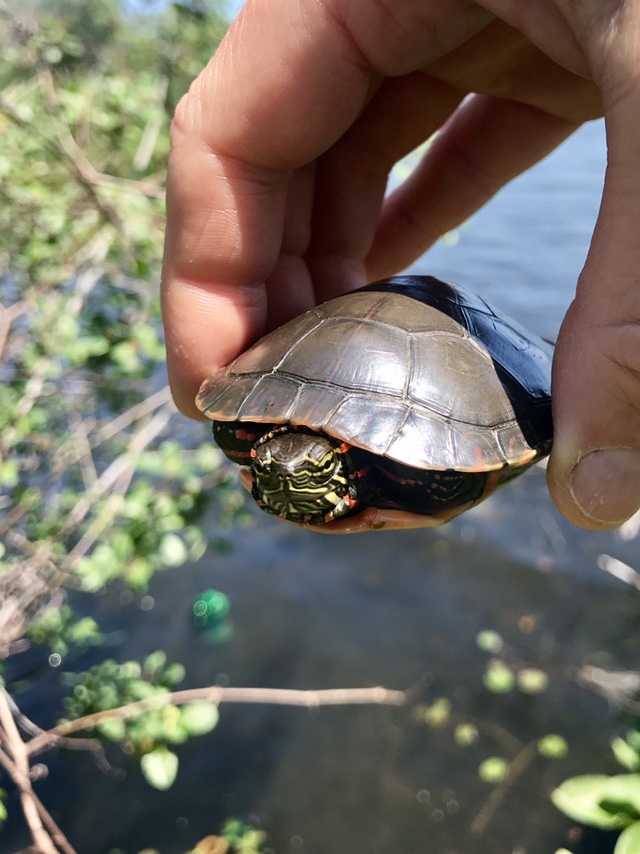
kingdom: Animalia
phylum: Chordata
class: Testudines
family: Emydidae
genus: Chrysemys
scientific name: Chrysemys picta
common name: Painted turtle
